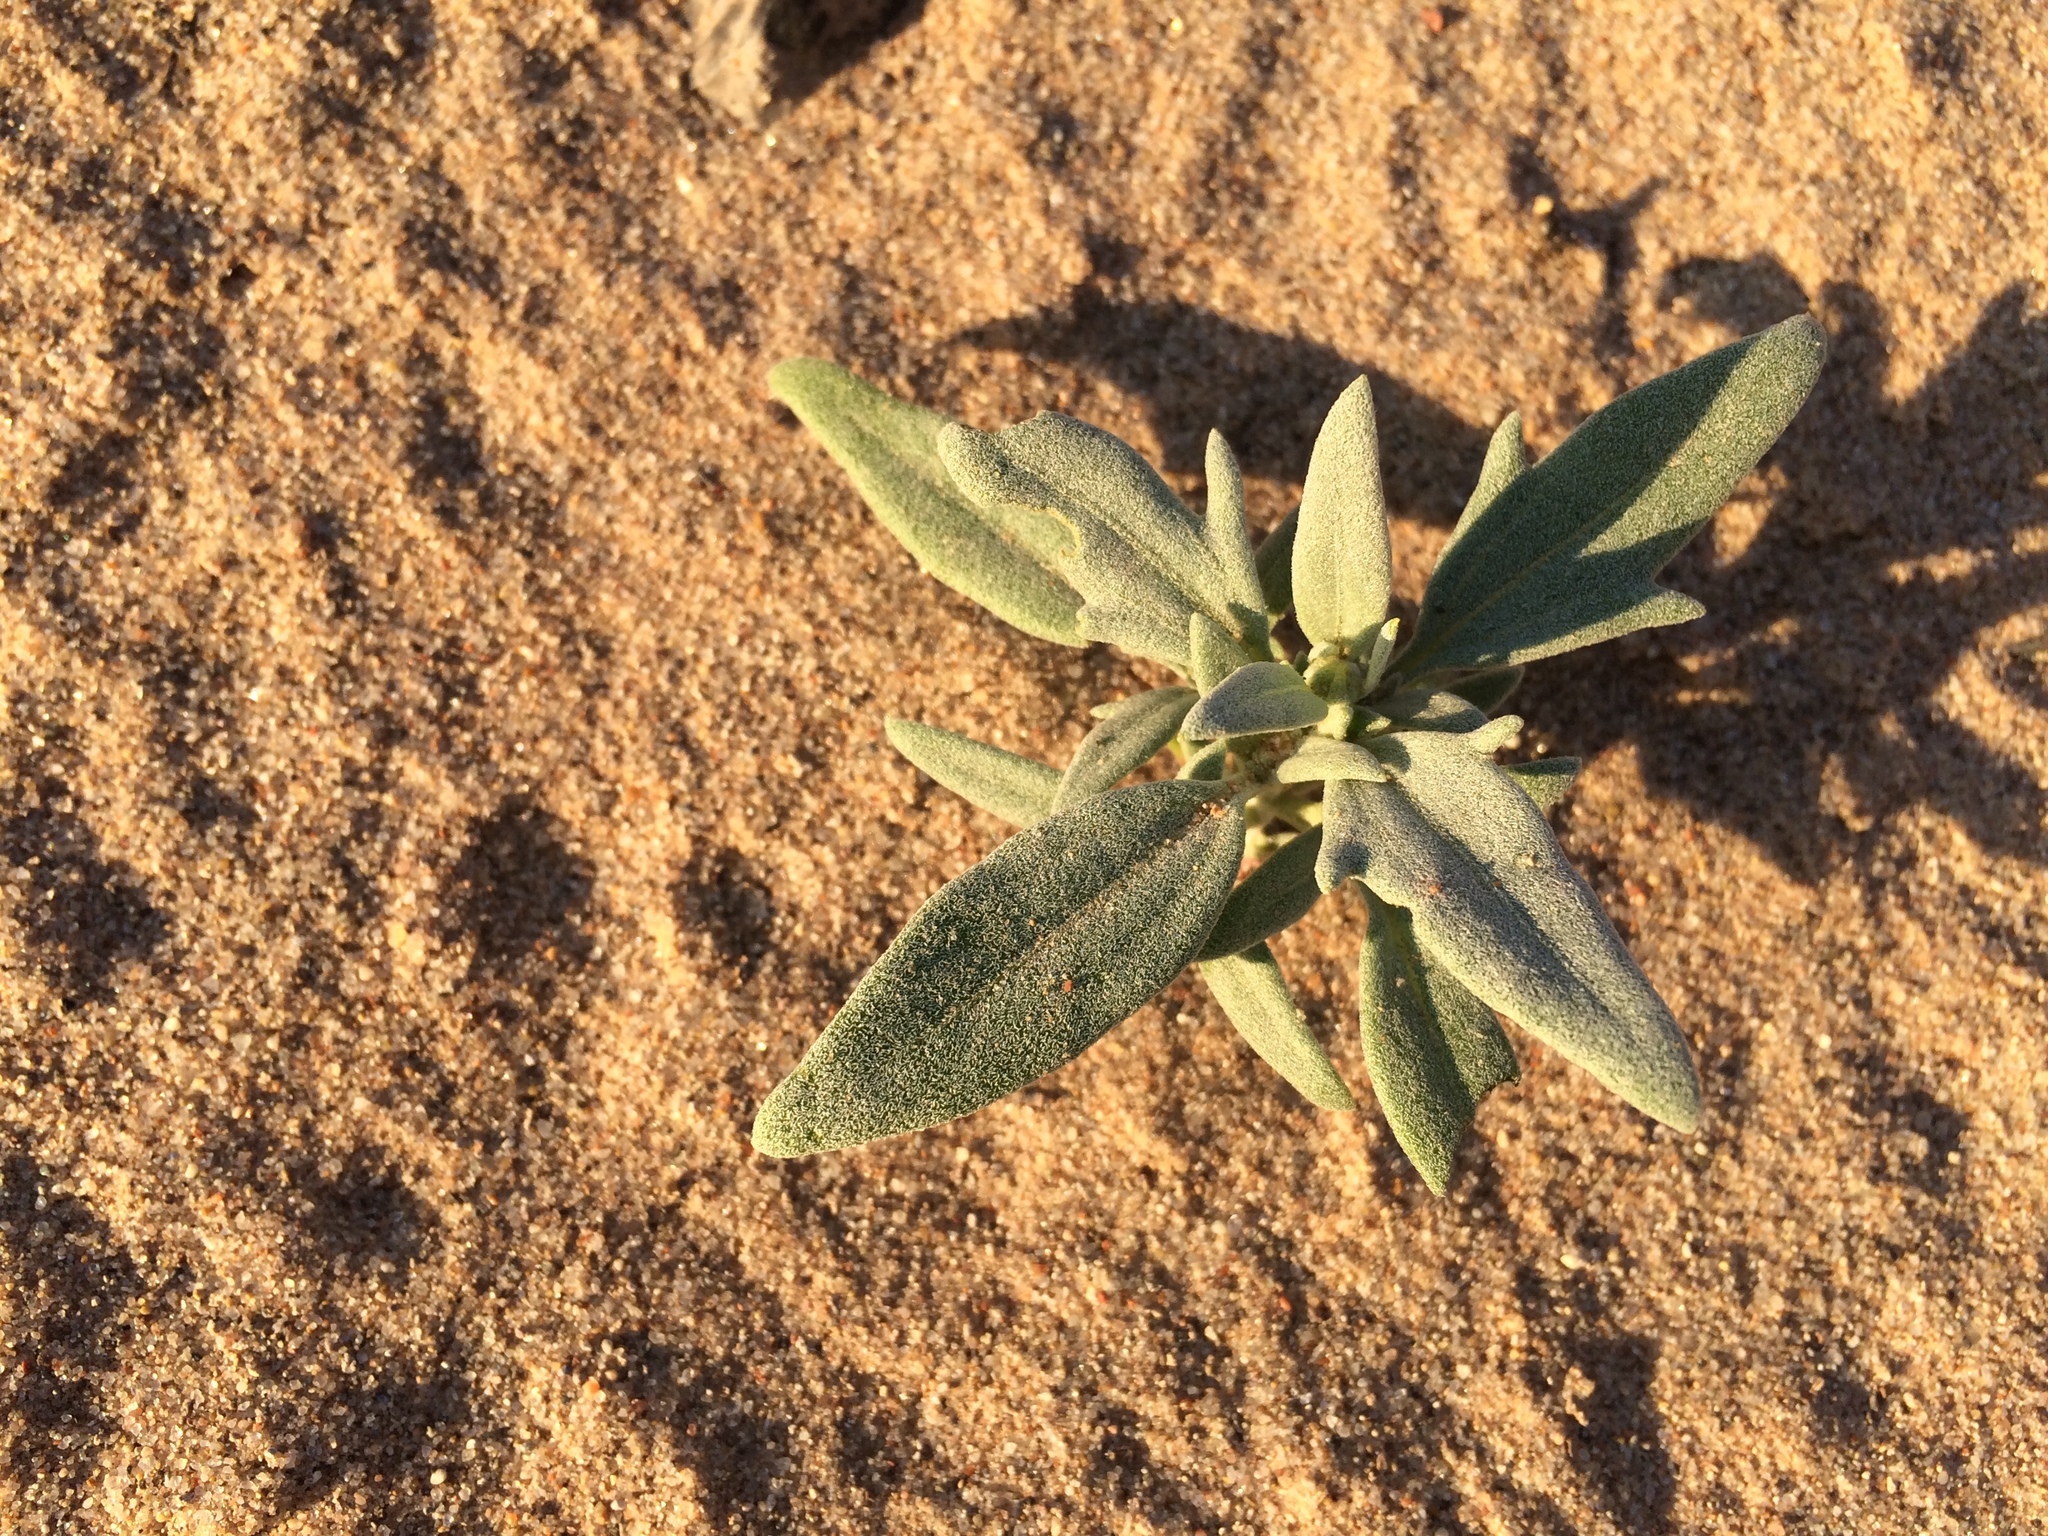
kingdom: Plantae
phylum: Tracheophyta
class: Magnoliopsida
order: Asterales
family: Asteraceae
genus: Picradeniopsis
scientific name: Picradeniopsis absinthifolia
